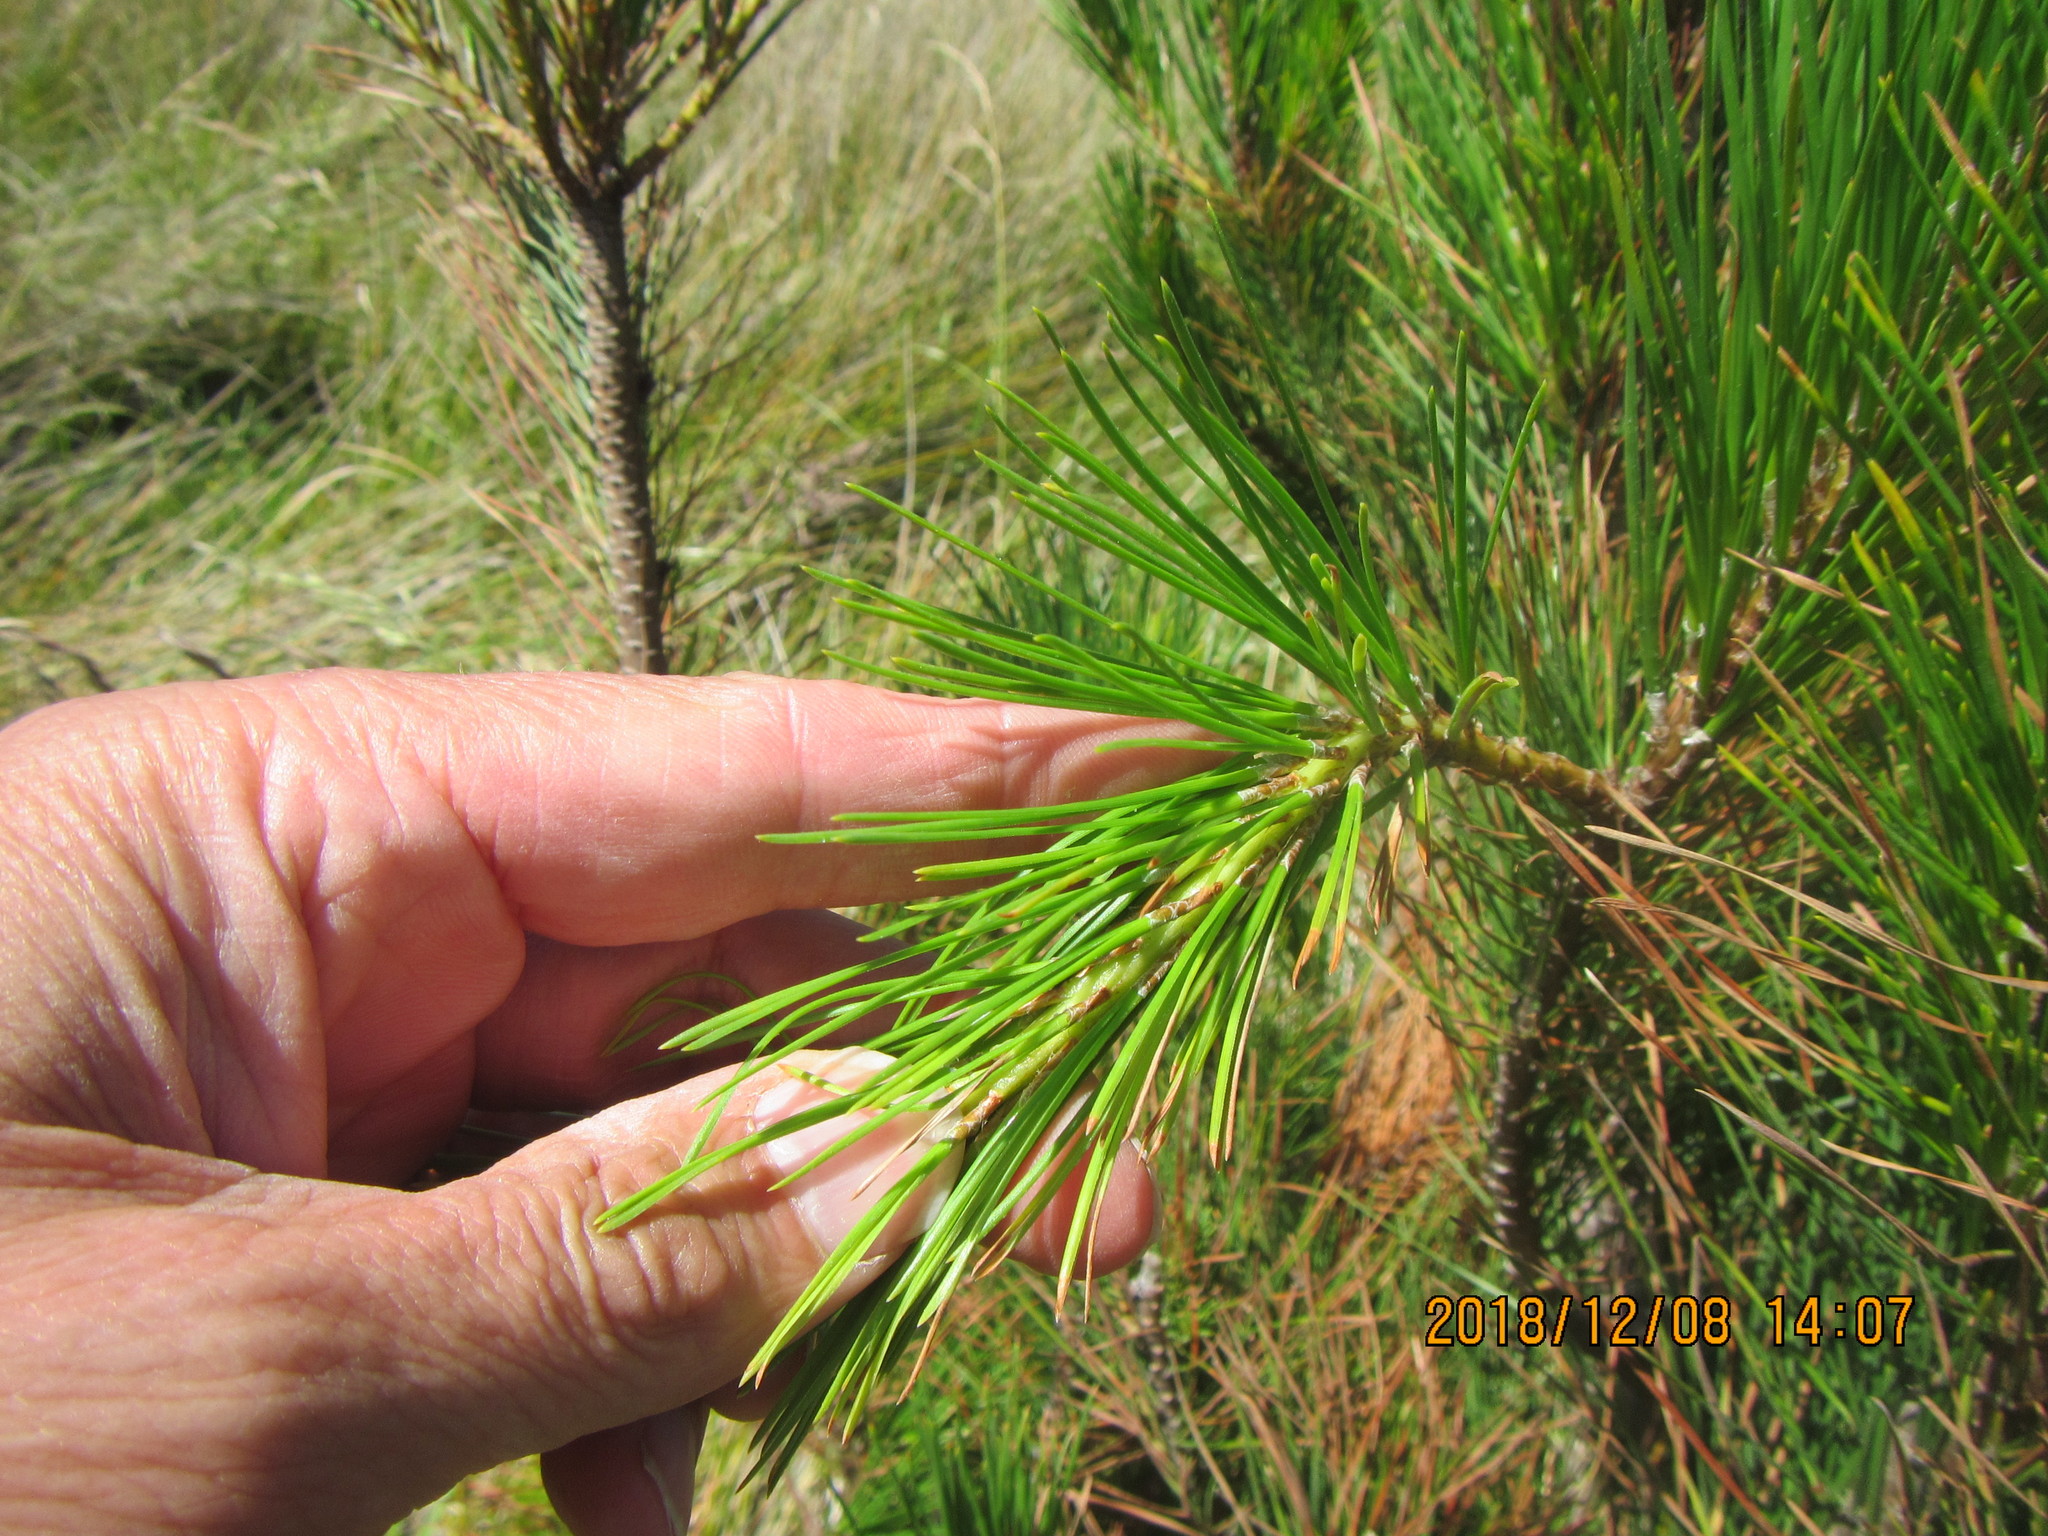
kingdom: Plantae
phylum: Tracheophyta
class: Pinopsida
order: Pinales
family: Pinaceae
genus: Pinus
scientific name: Pinus radiata
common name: Monterey pine
